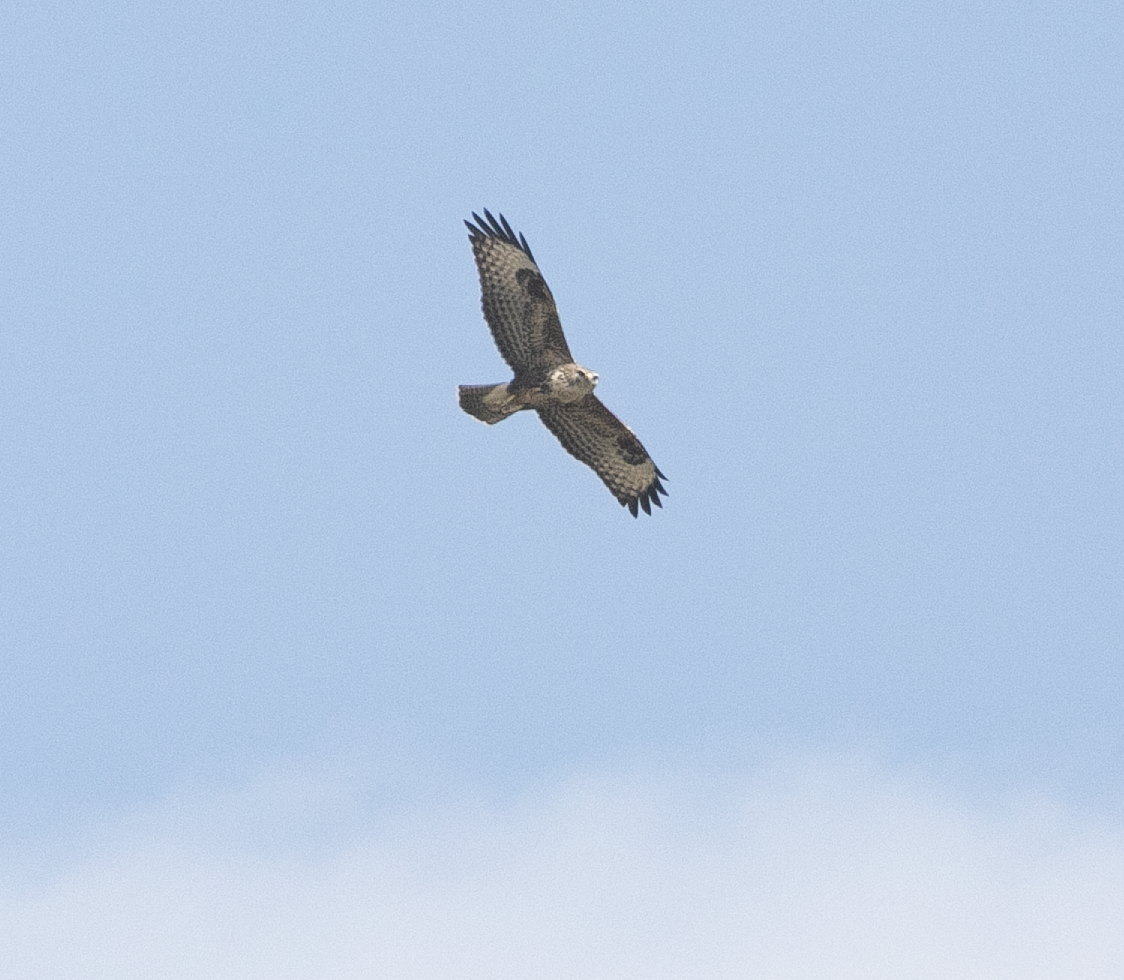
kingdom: Animalia
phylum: Chordata
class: Aves
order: Accipitriformes
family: Accipitridae
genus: Buteo
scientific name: Buteo buteo
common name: Common buzzard
